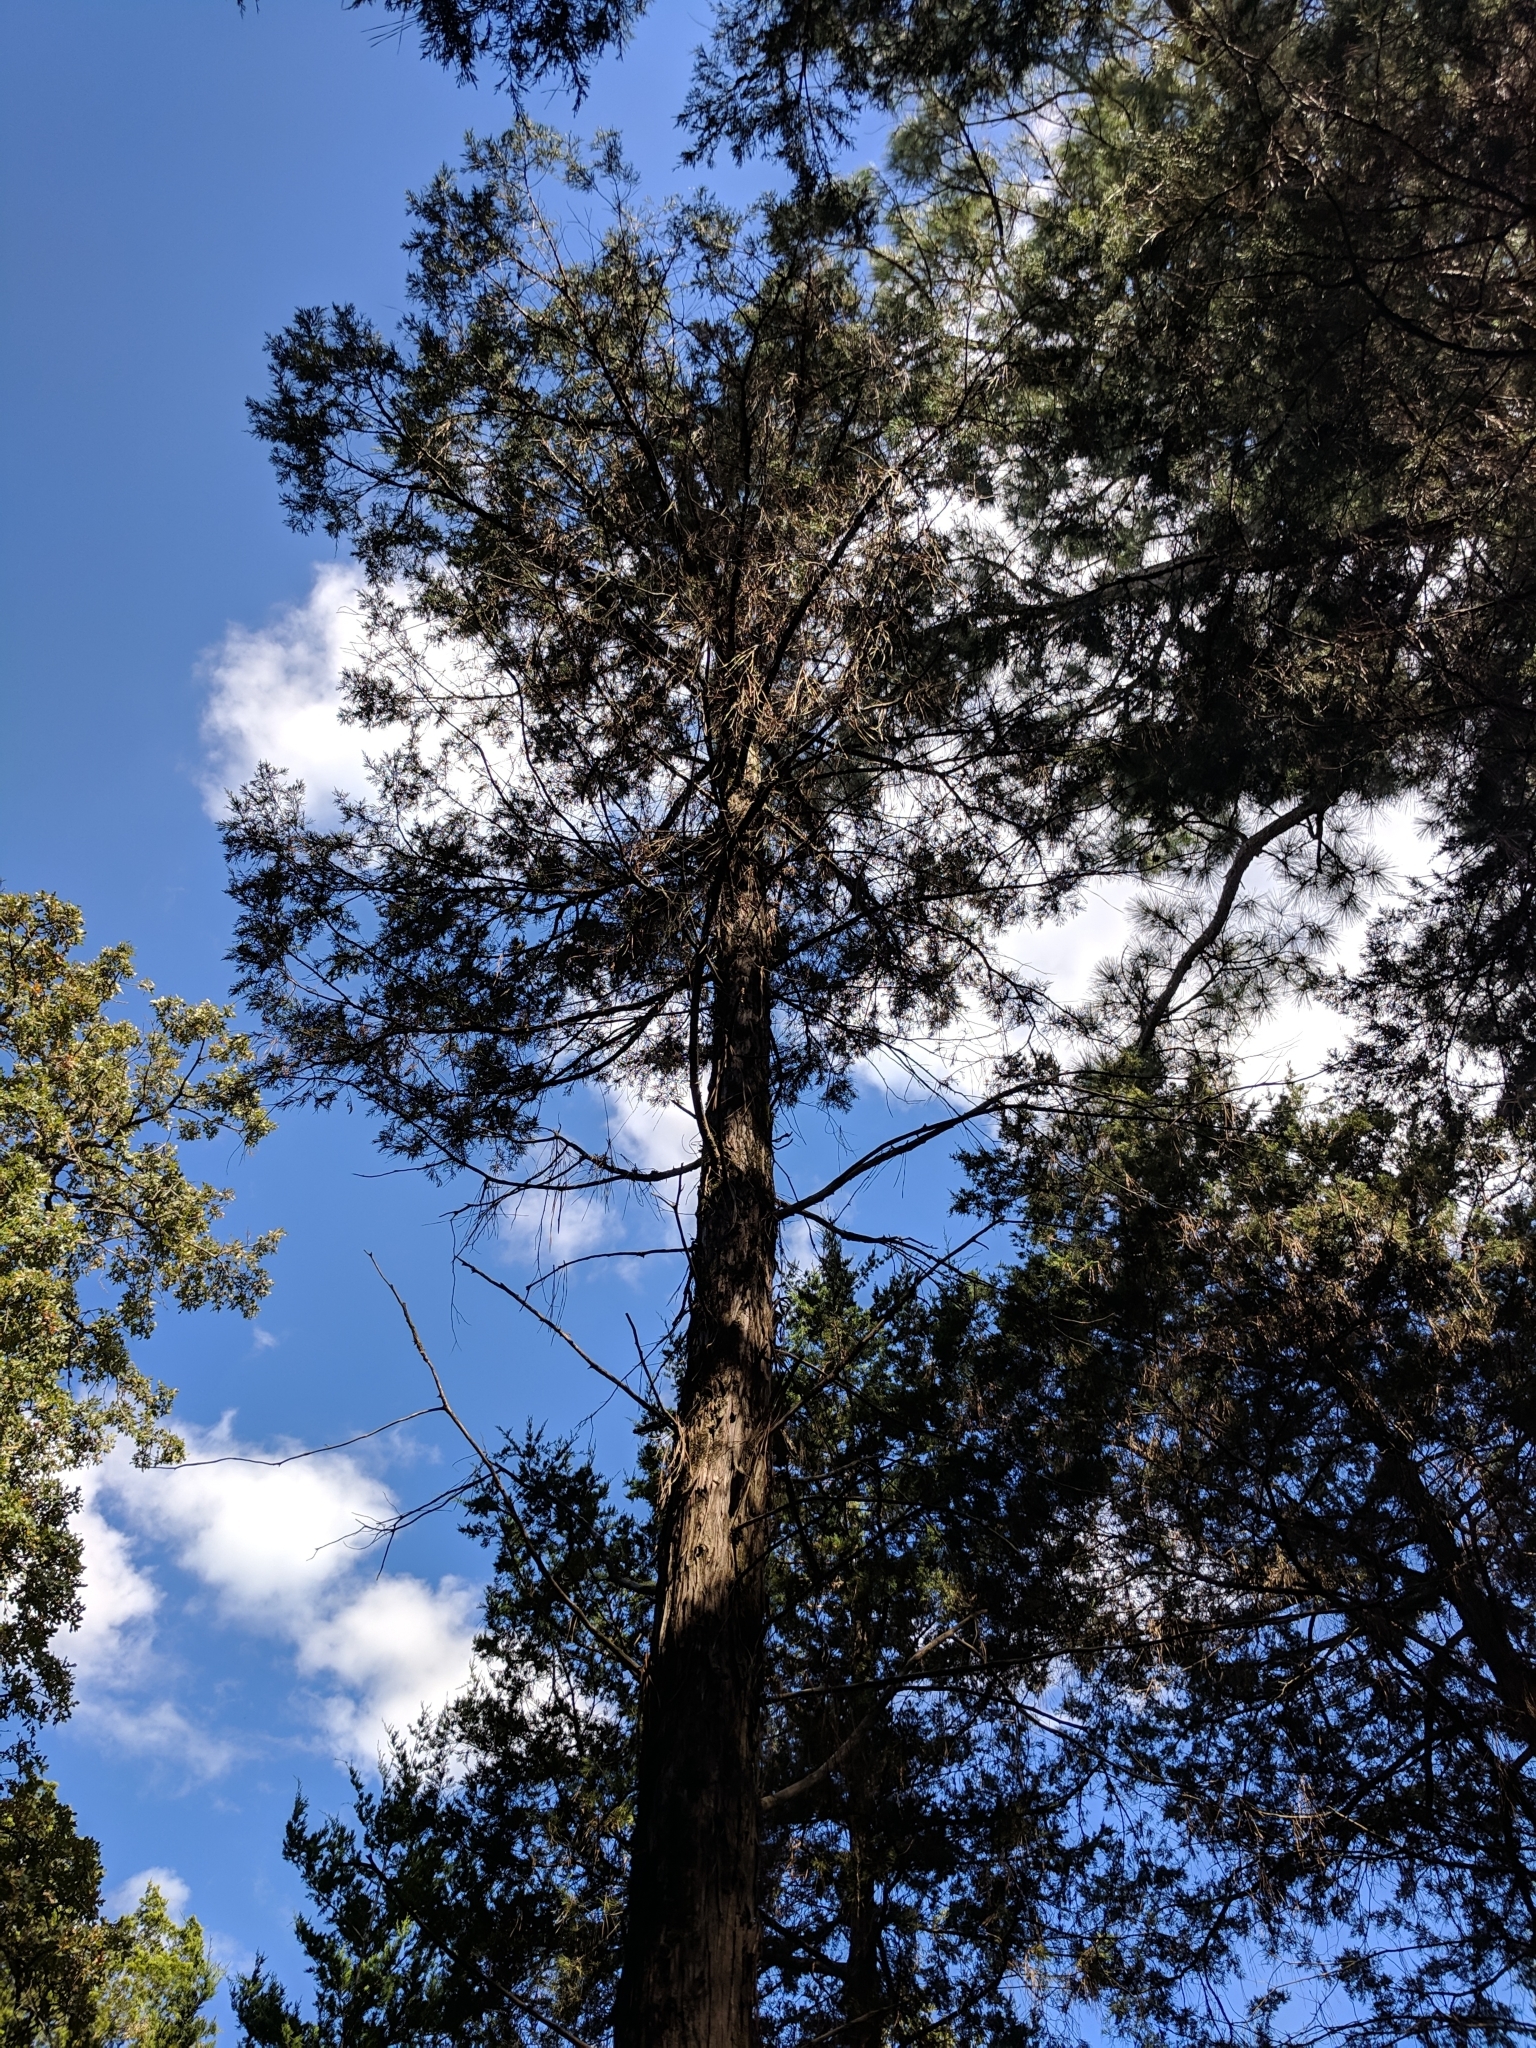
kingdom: Plantae
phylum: Tracheophyta
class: Pinopsida
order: Pinales
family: Cupressaceae
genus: Juniperus
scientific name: Juniperus virginiana
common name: Red juniper
